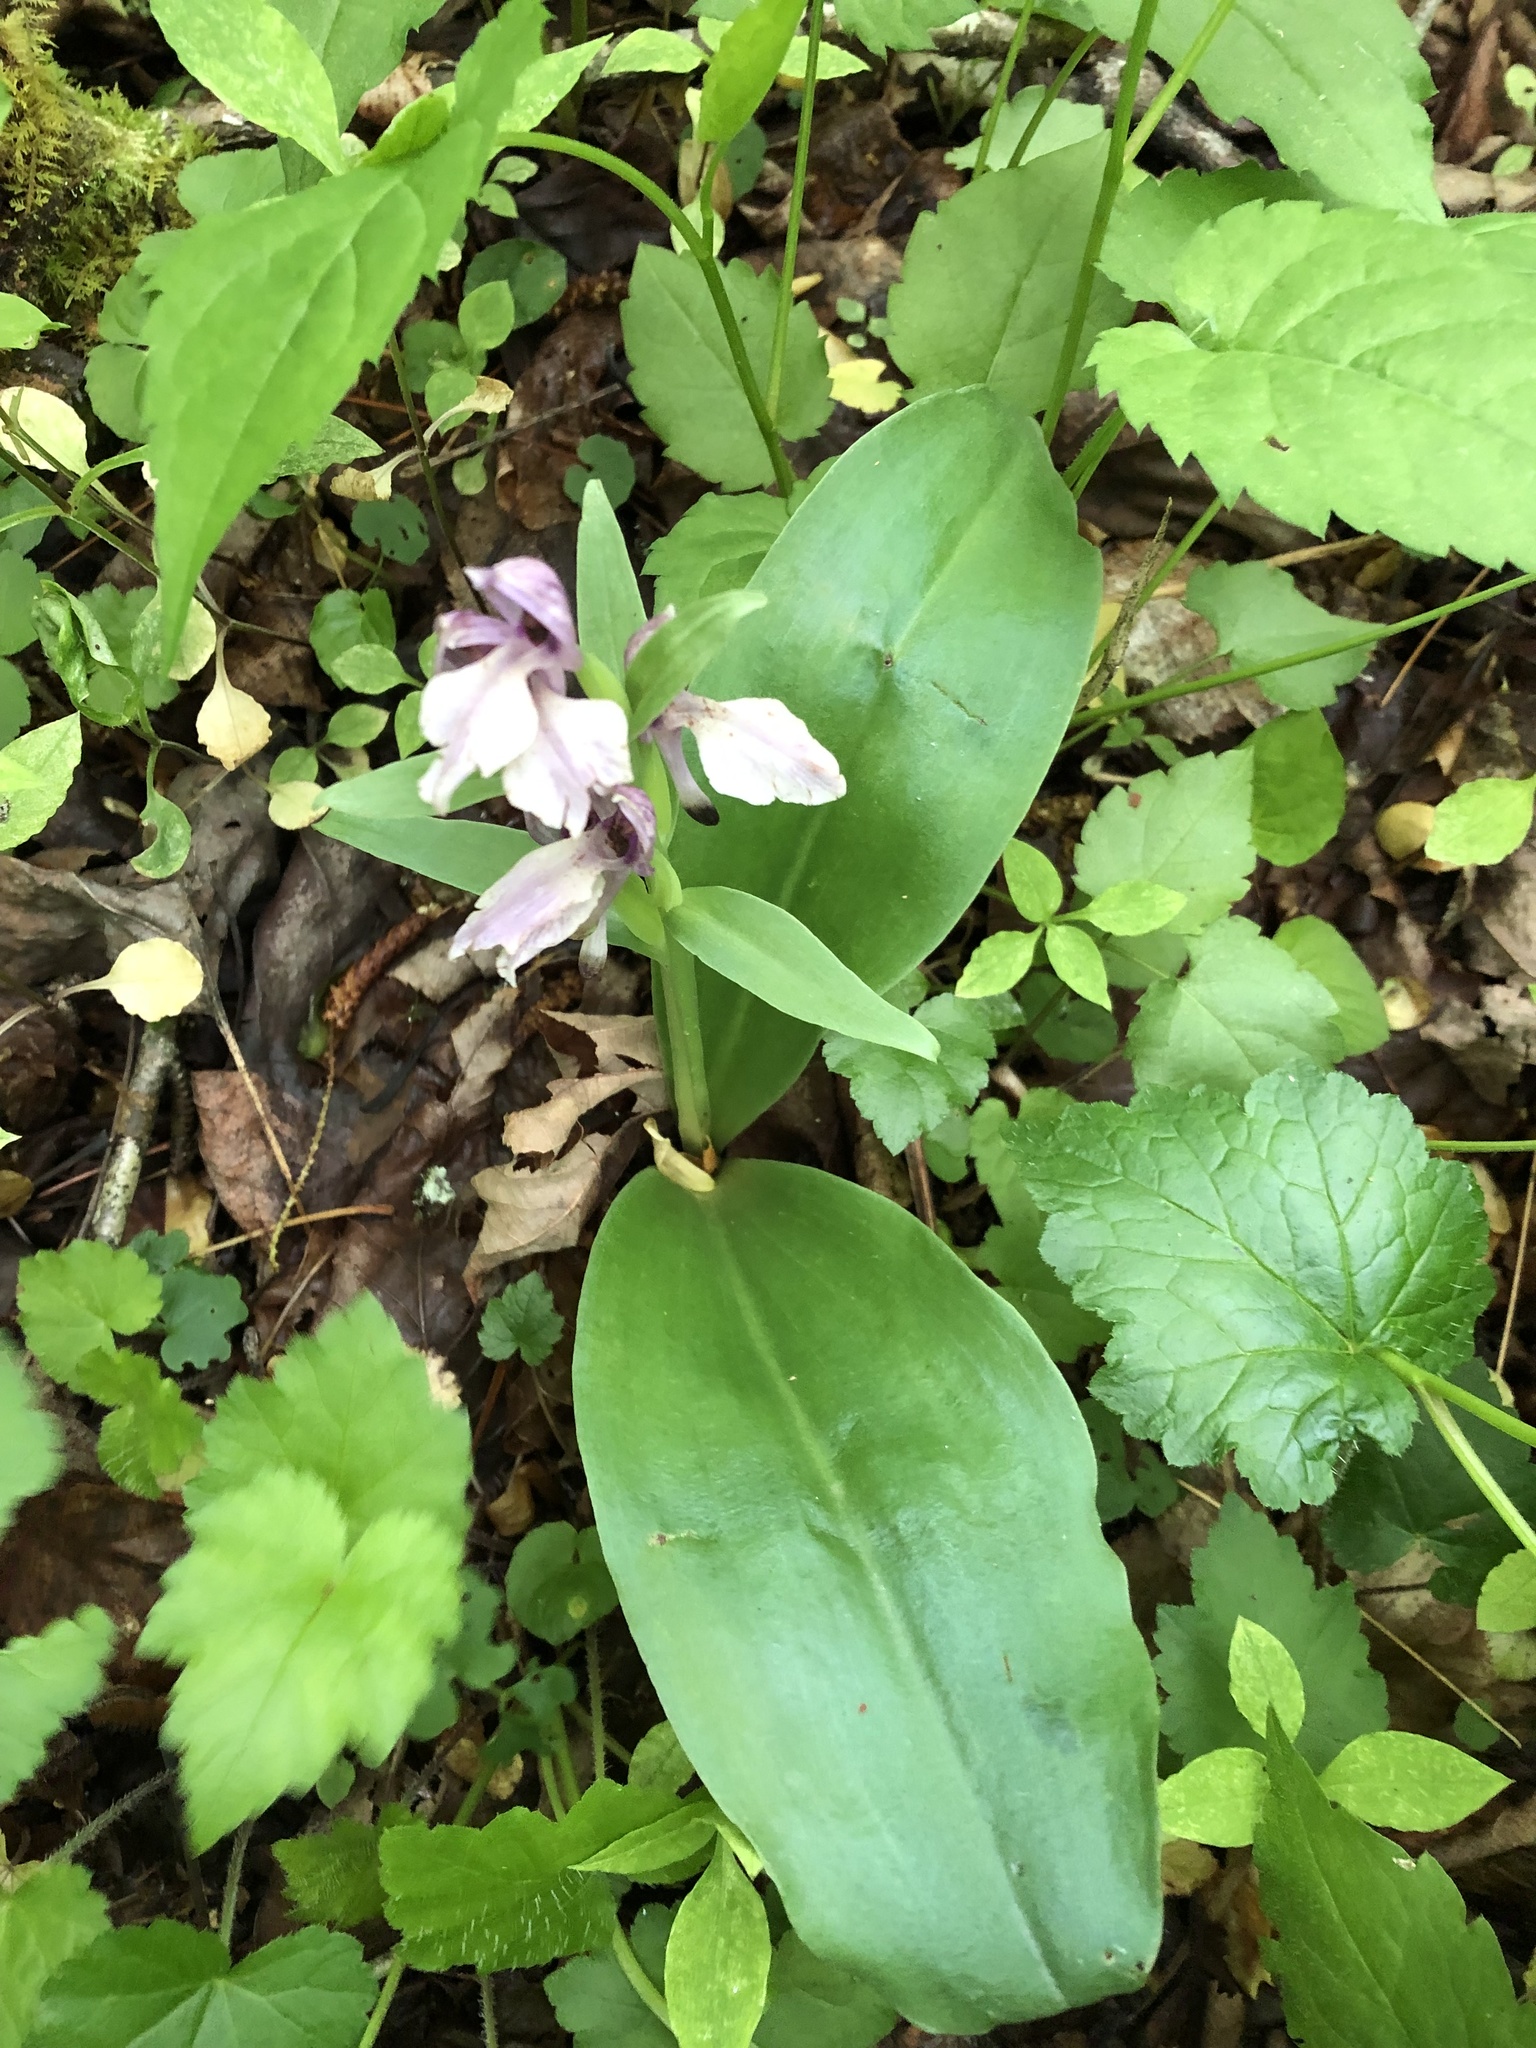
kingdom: Plantae
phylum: Tracheophyta
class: Liliopsida
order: Asparagales
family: Orchidaceae
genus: Galearis
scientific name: Galearis spectabilis
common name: Purple-hooded orchis
